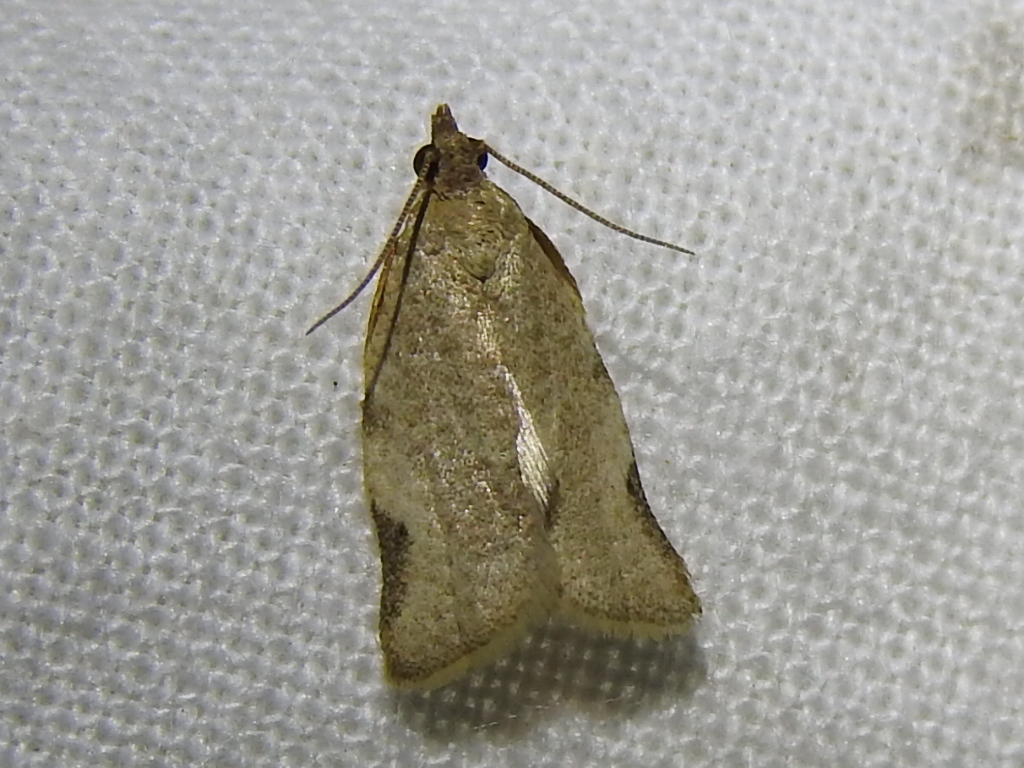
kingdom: Animalia
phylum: Arthropoda
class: Insecta
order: Lepidoptera
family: Tortricidae
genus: Clepsis
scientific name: Clepsis virescana
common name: Greenish apple moth
